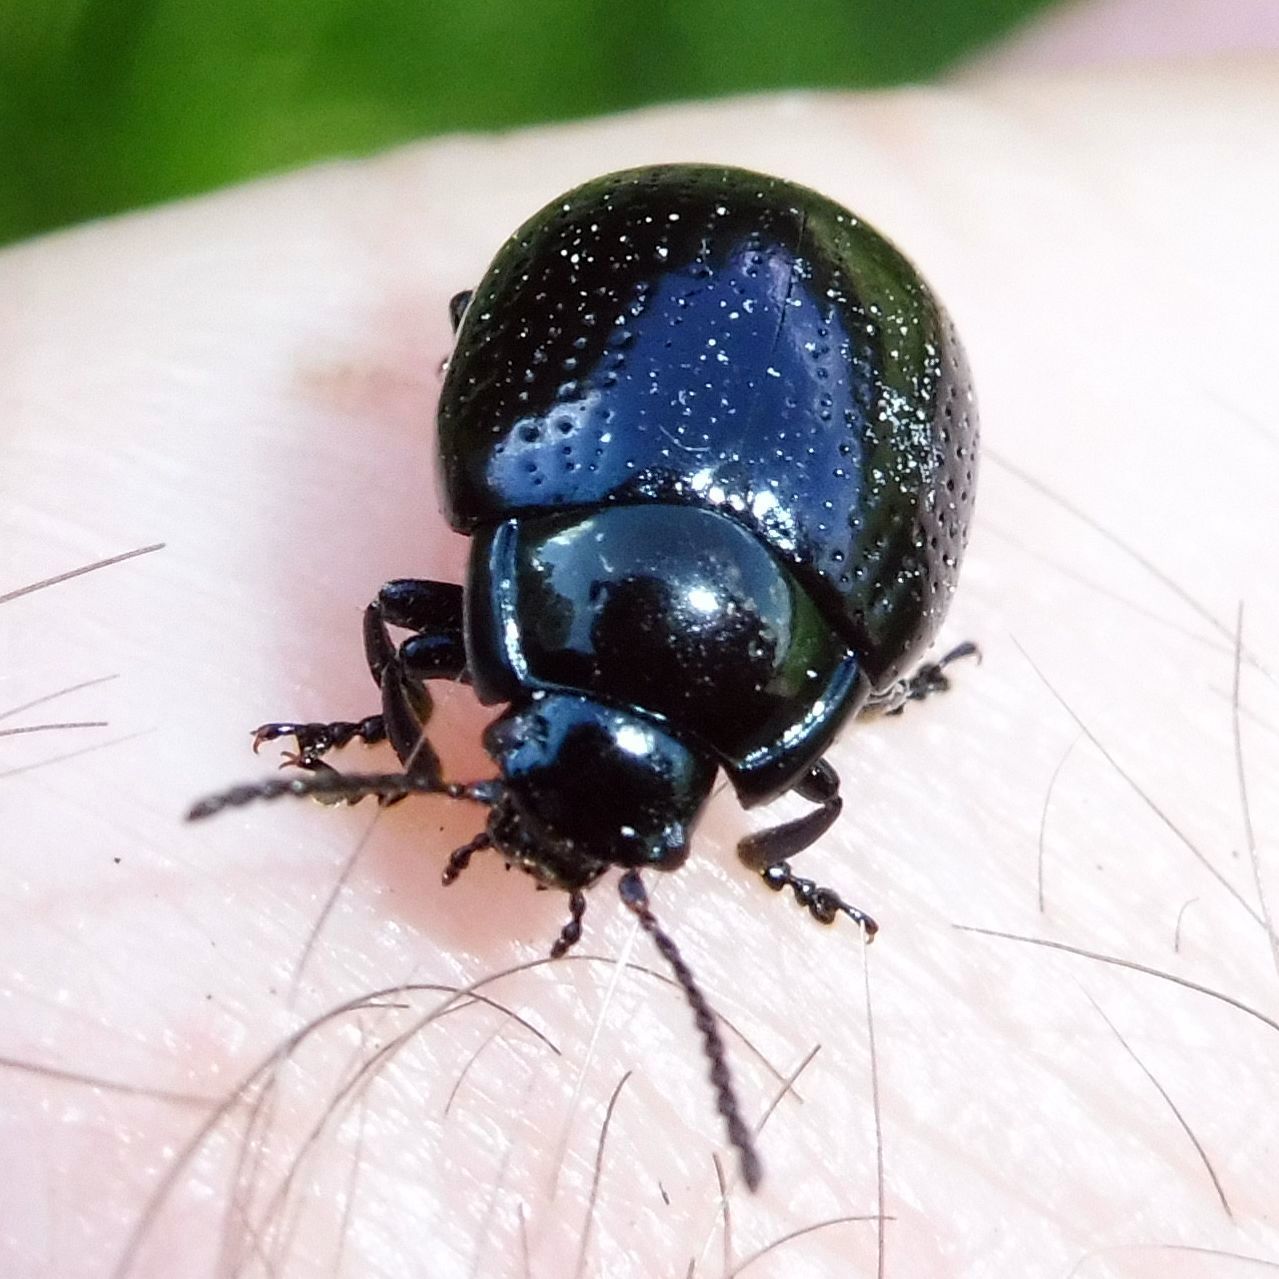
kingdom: Animalia
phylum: Arthropoda
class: Insecta
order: Coleoptera
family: Chrysomelidae
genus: Chrysolina
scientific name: Chrysolina oricalcia
